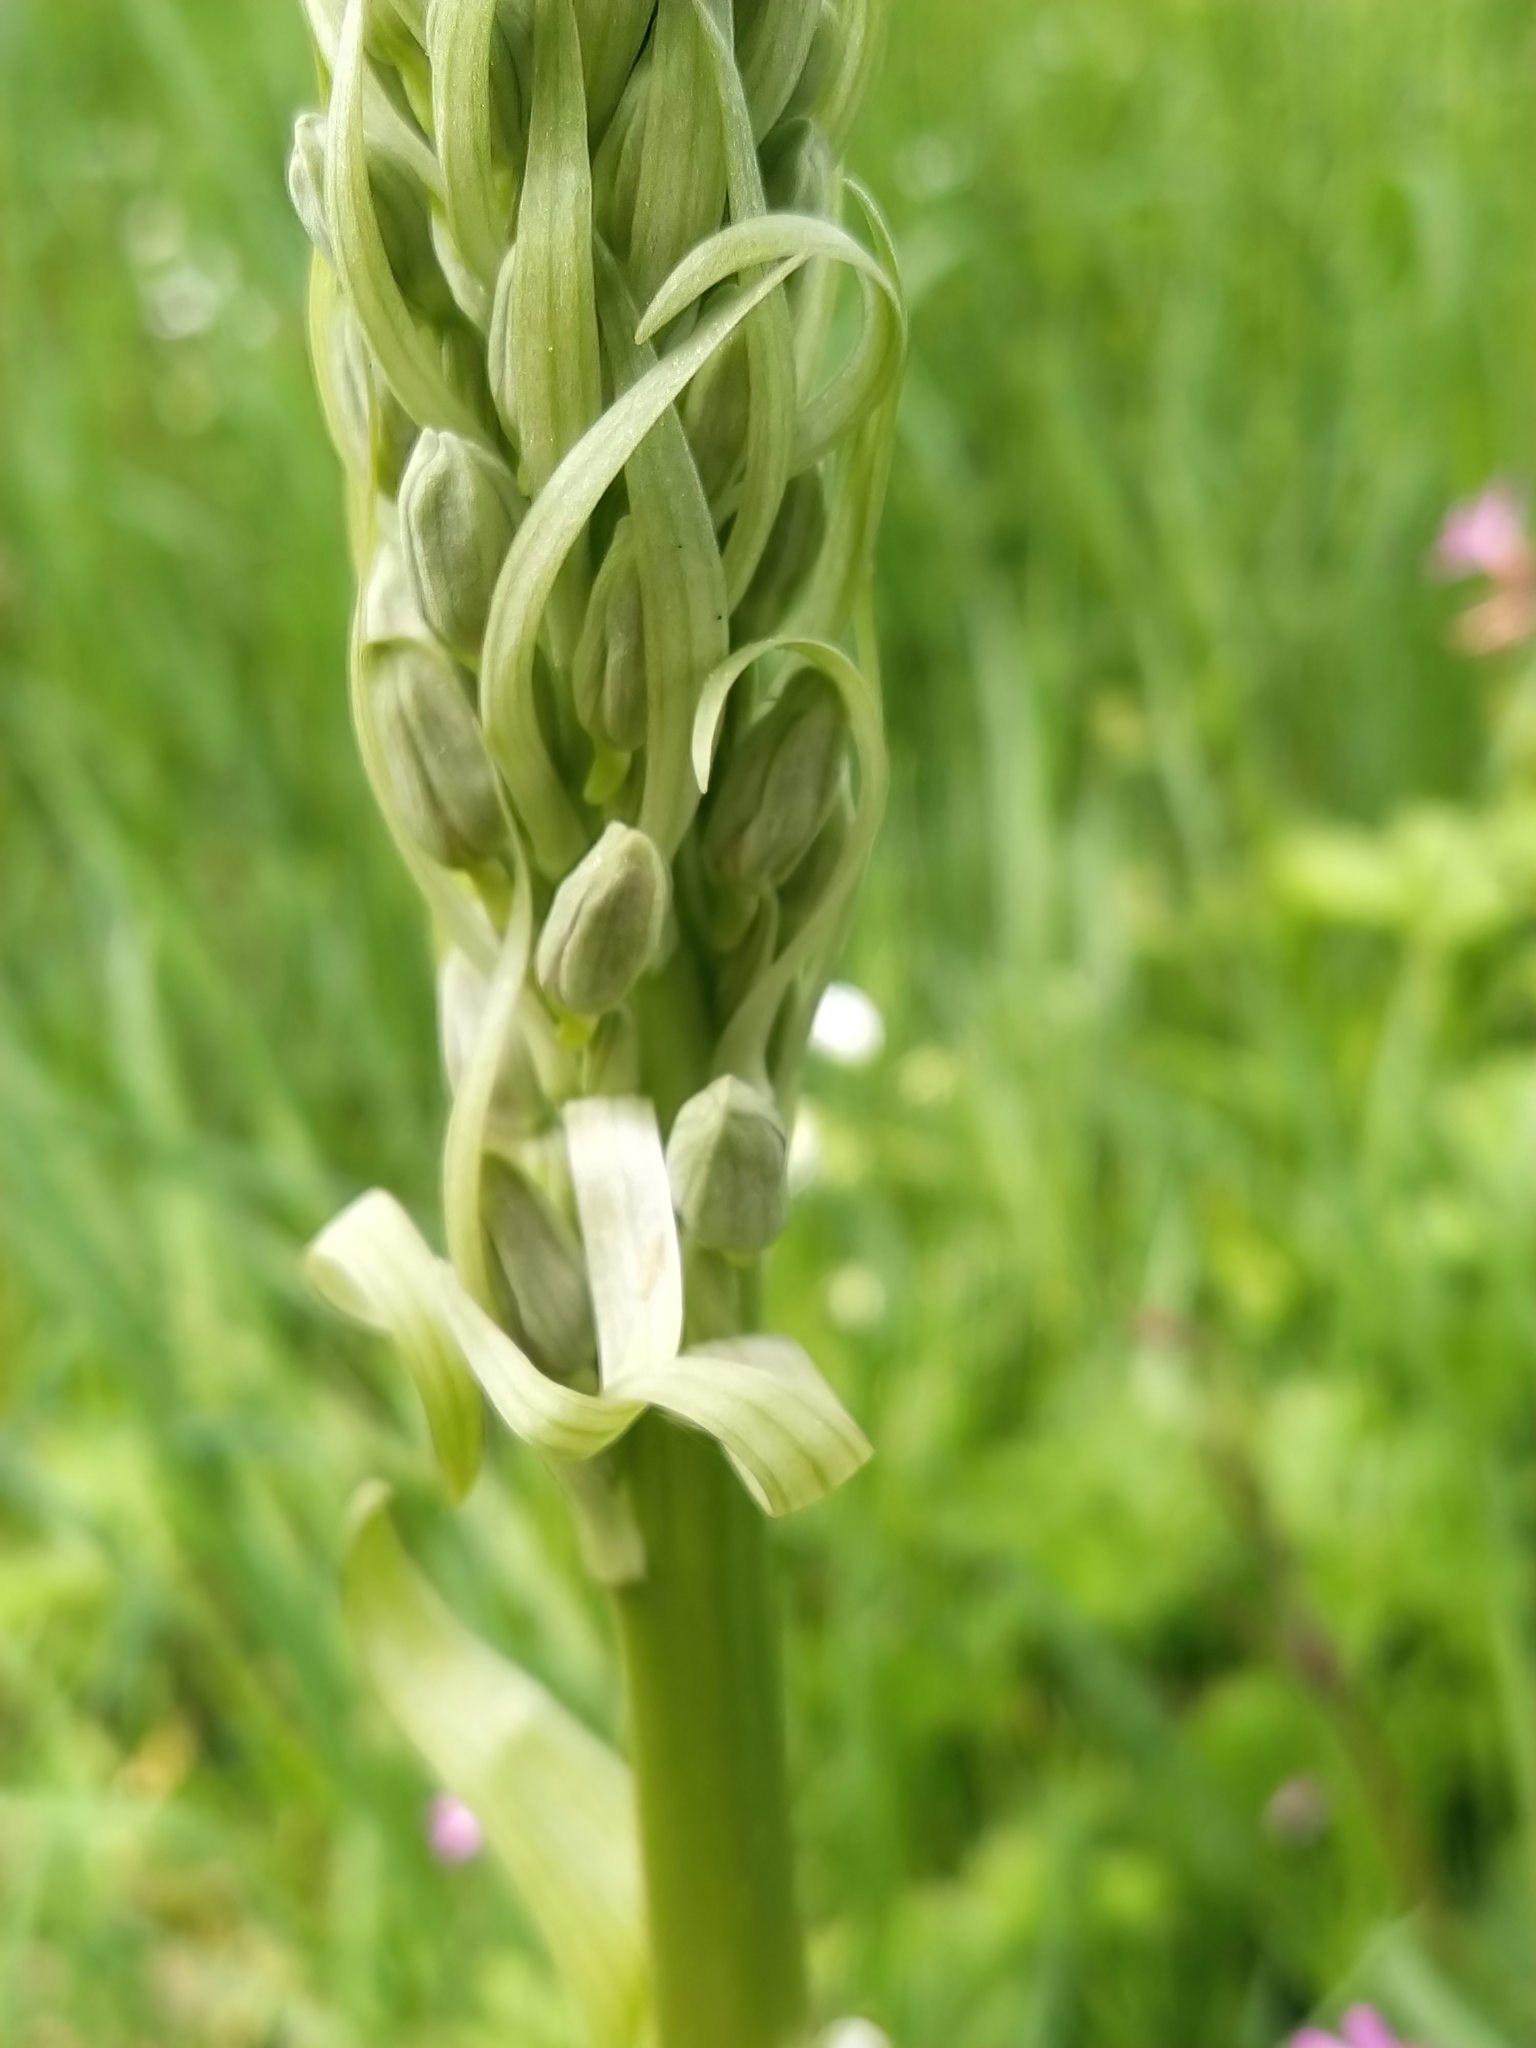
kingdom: Plantae
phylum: Tracheophyta
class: Liliopsida
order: Asparagales
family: Orchidaceae
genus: Himantoglossum
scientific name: Himantoglossum hircinum
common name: Lizard orchid
